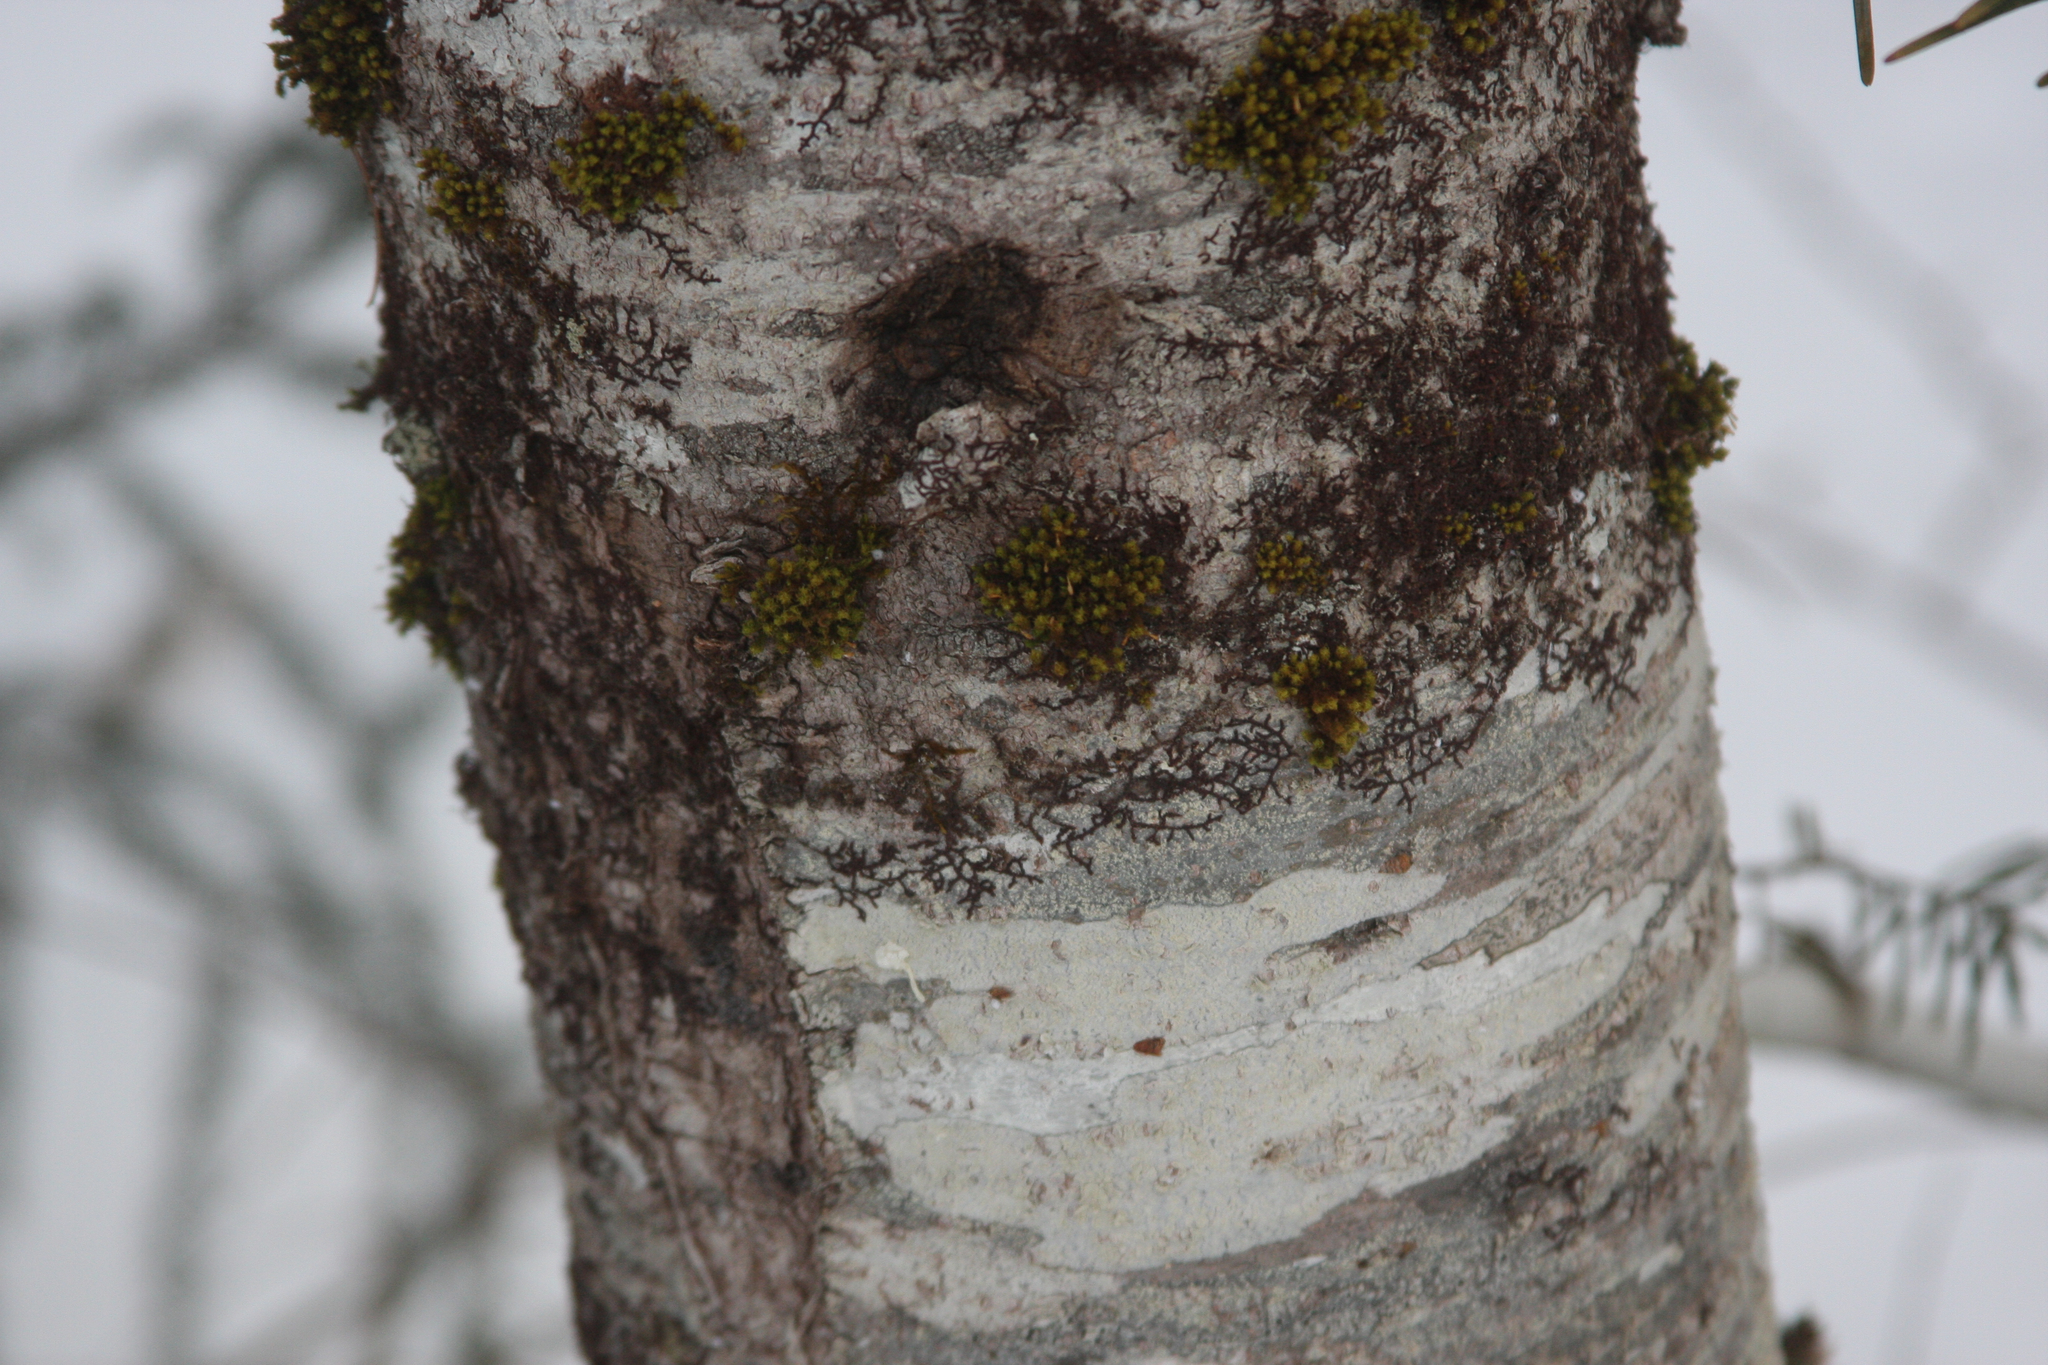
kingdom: Plantae
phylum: Bryophyta
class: Bryopsida
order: Orthotrichales
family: Orthotrichaceae
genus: Ulota
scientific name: Ulota crispa
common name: Crisped pincushion moss
